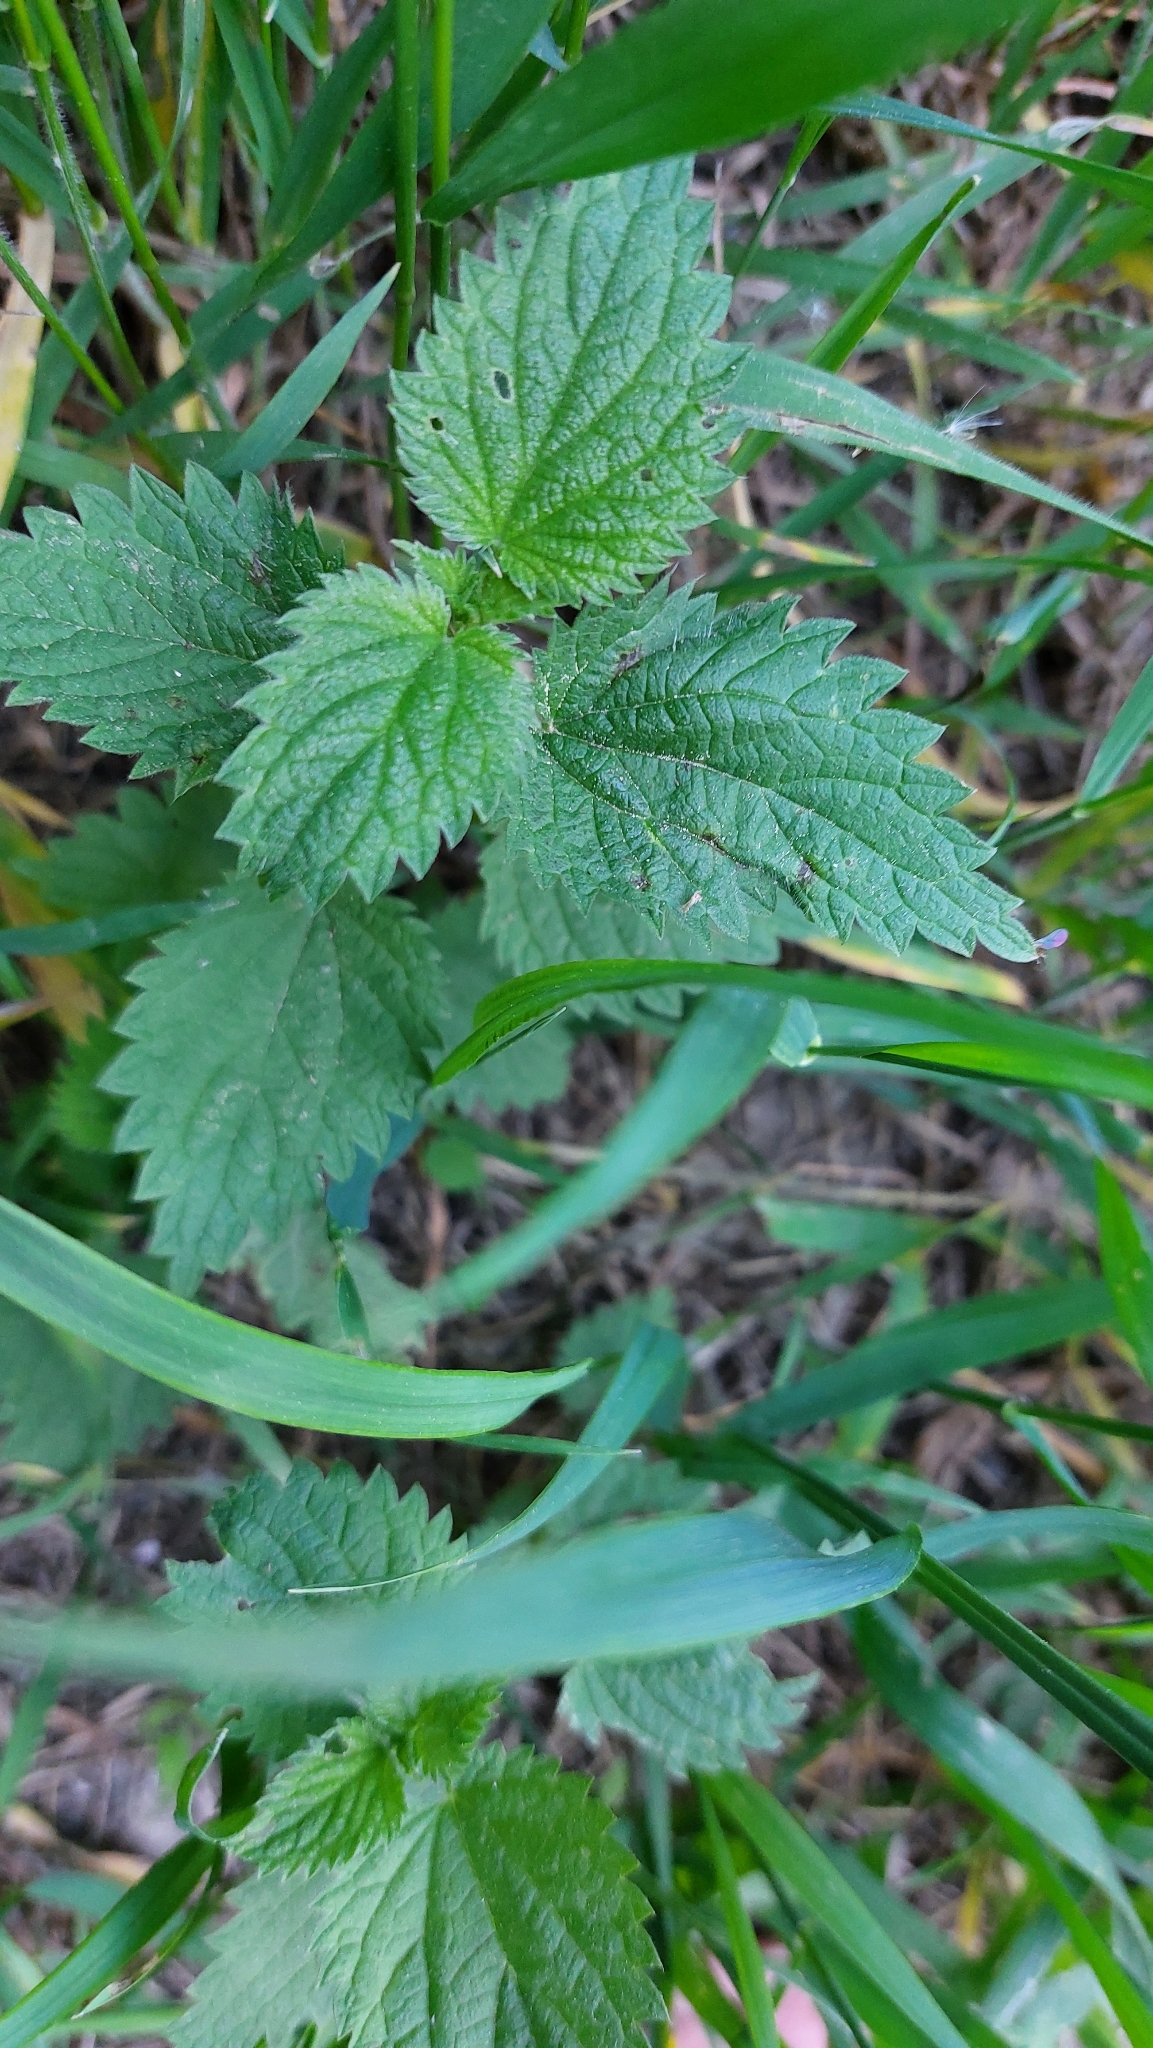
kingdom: Plantae
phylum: Tracheophyta
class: Magnoliopsida
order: Rosales
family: Urticaceae
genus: Urtica
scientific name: Urtica dioica
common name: Common nettle
